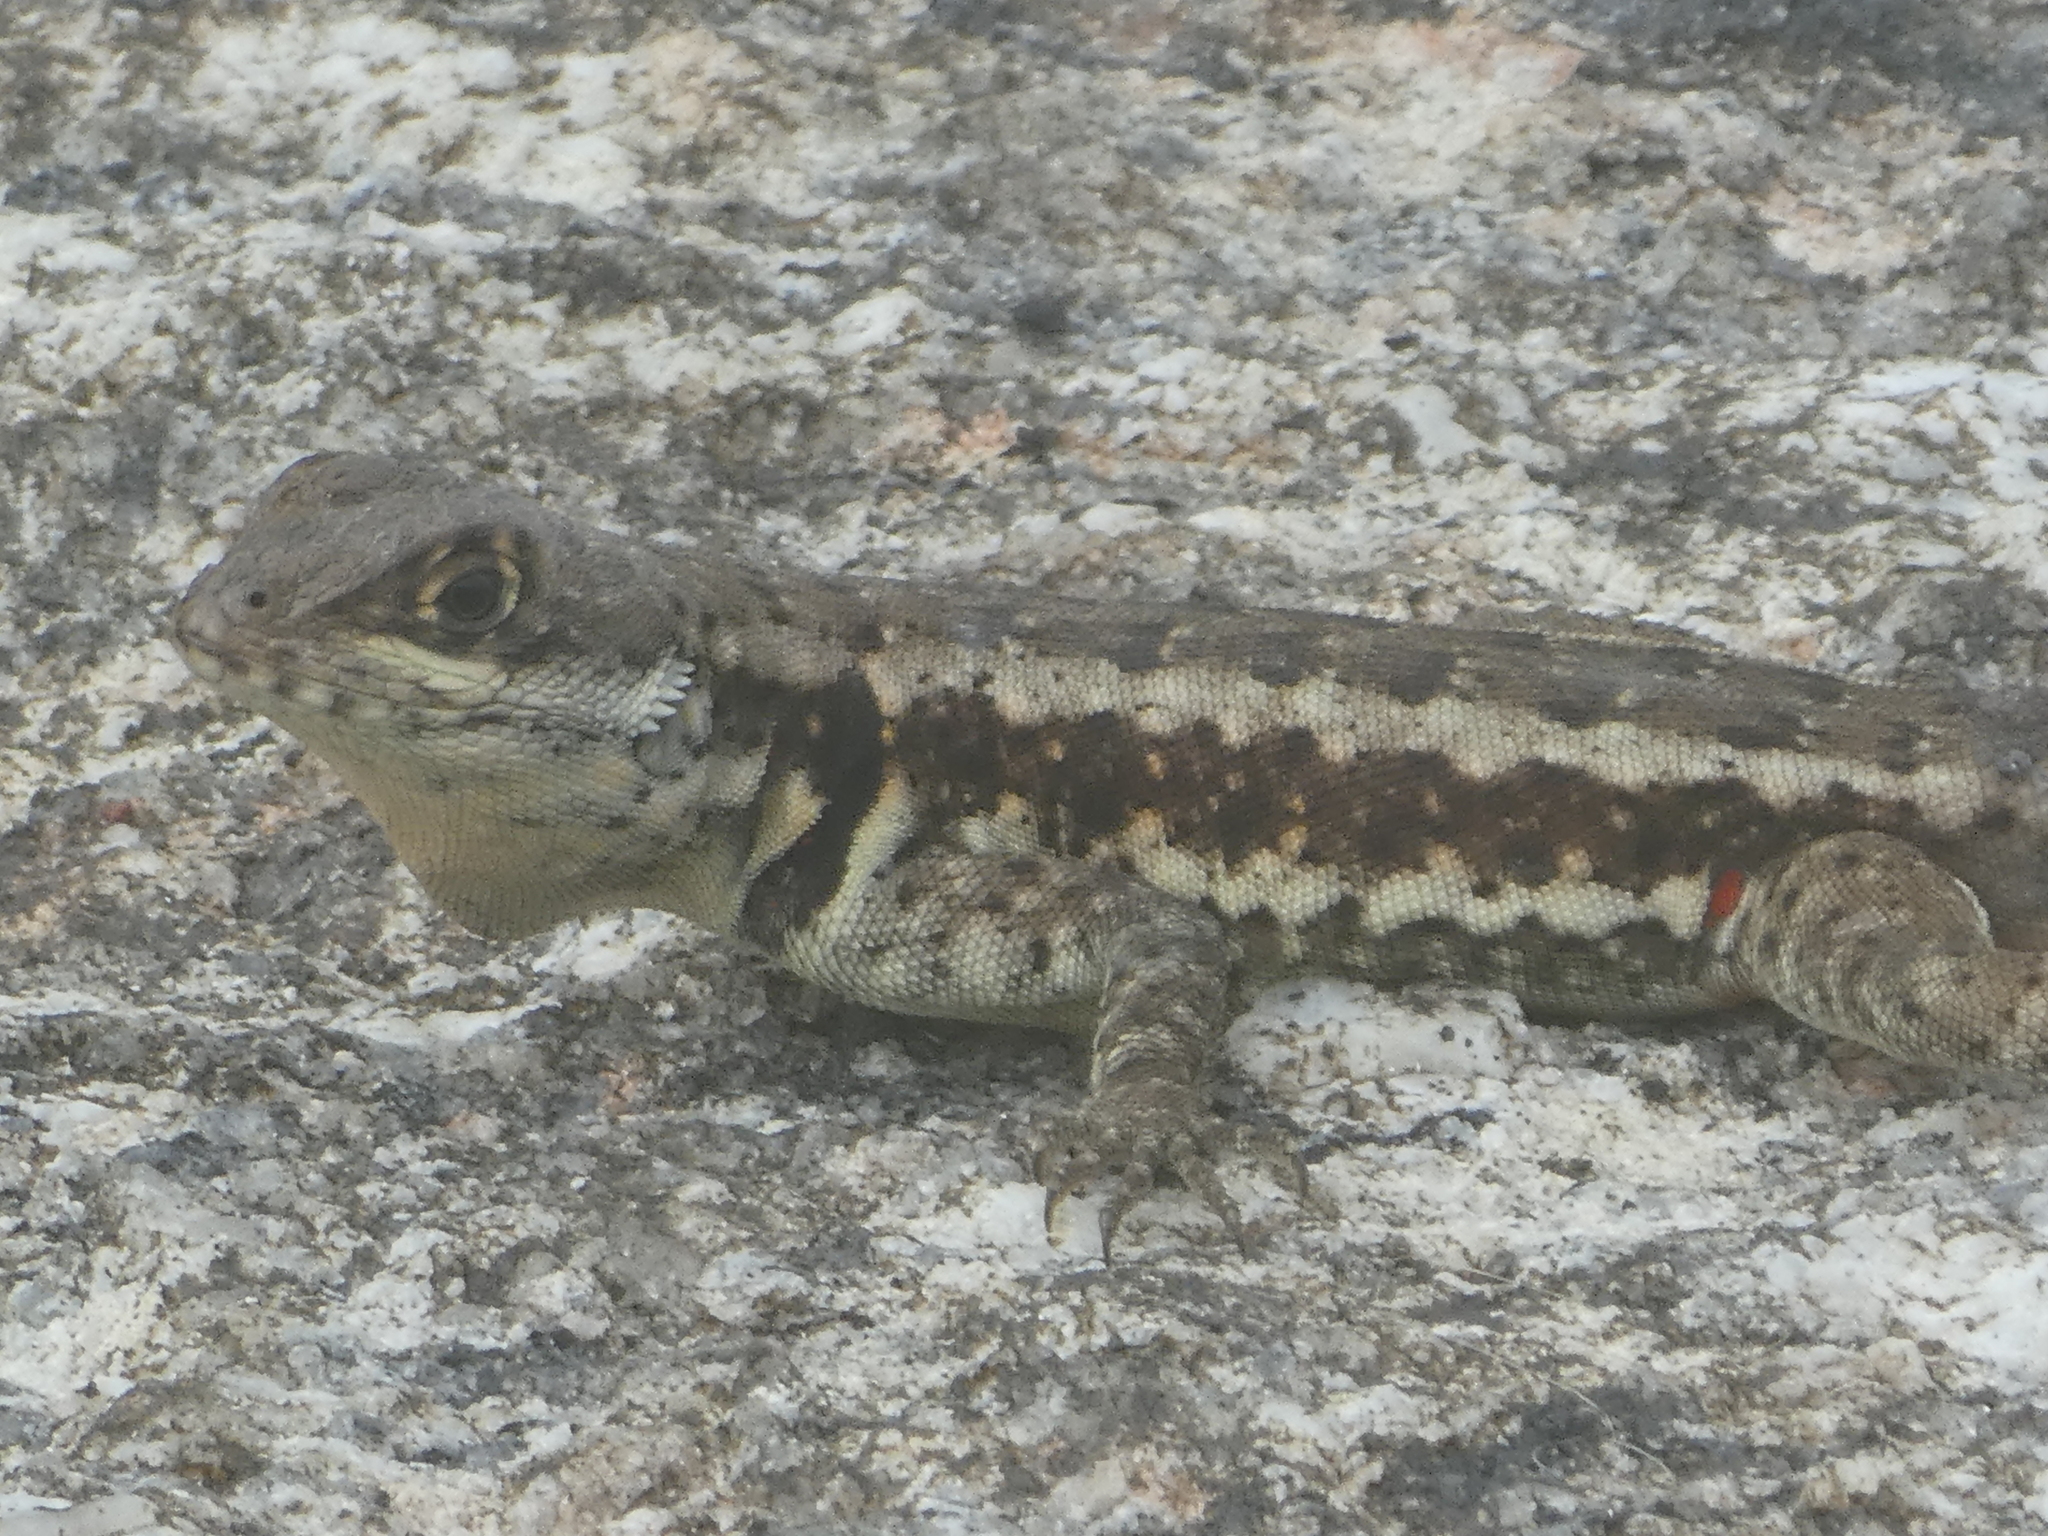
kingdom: Animalia
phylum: Chordata
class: Squamata
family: Tropiduridae
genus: Tropidurus
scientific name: Tropidurus torquatus
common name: Amazon lava lizard
